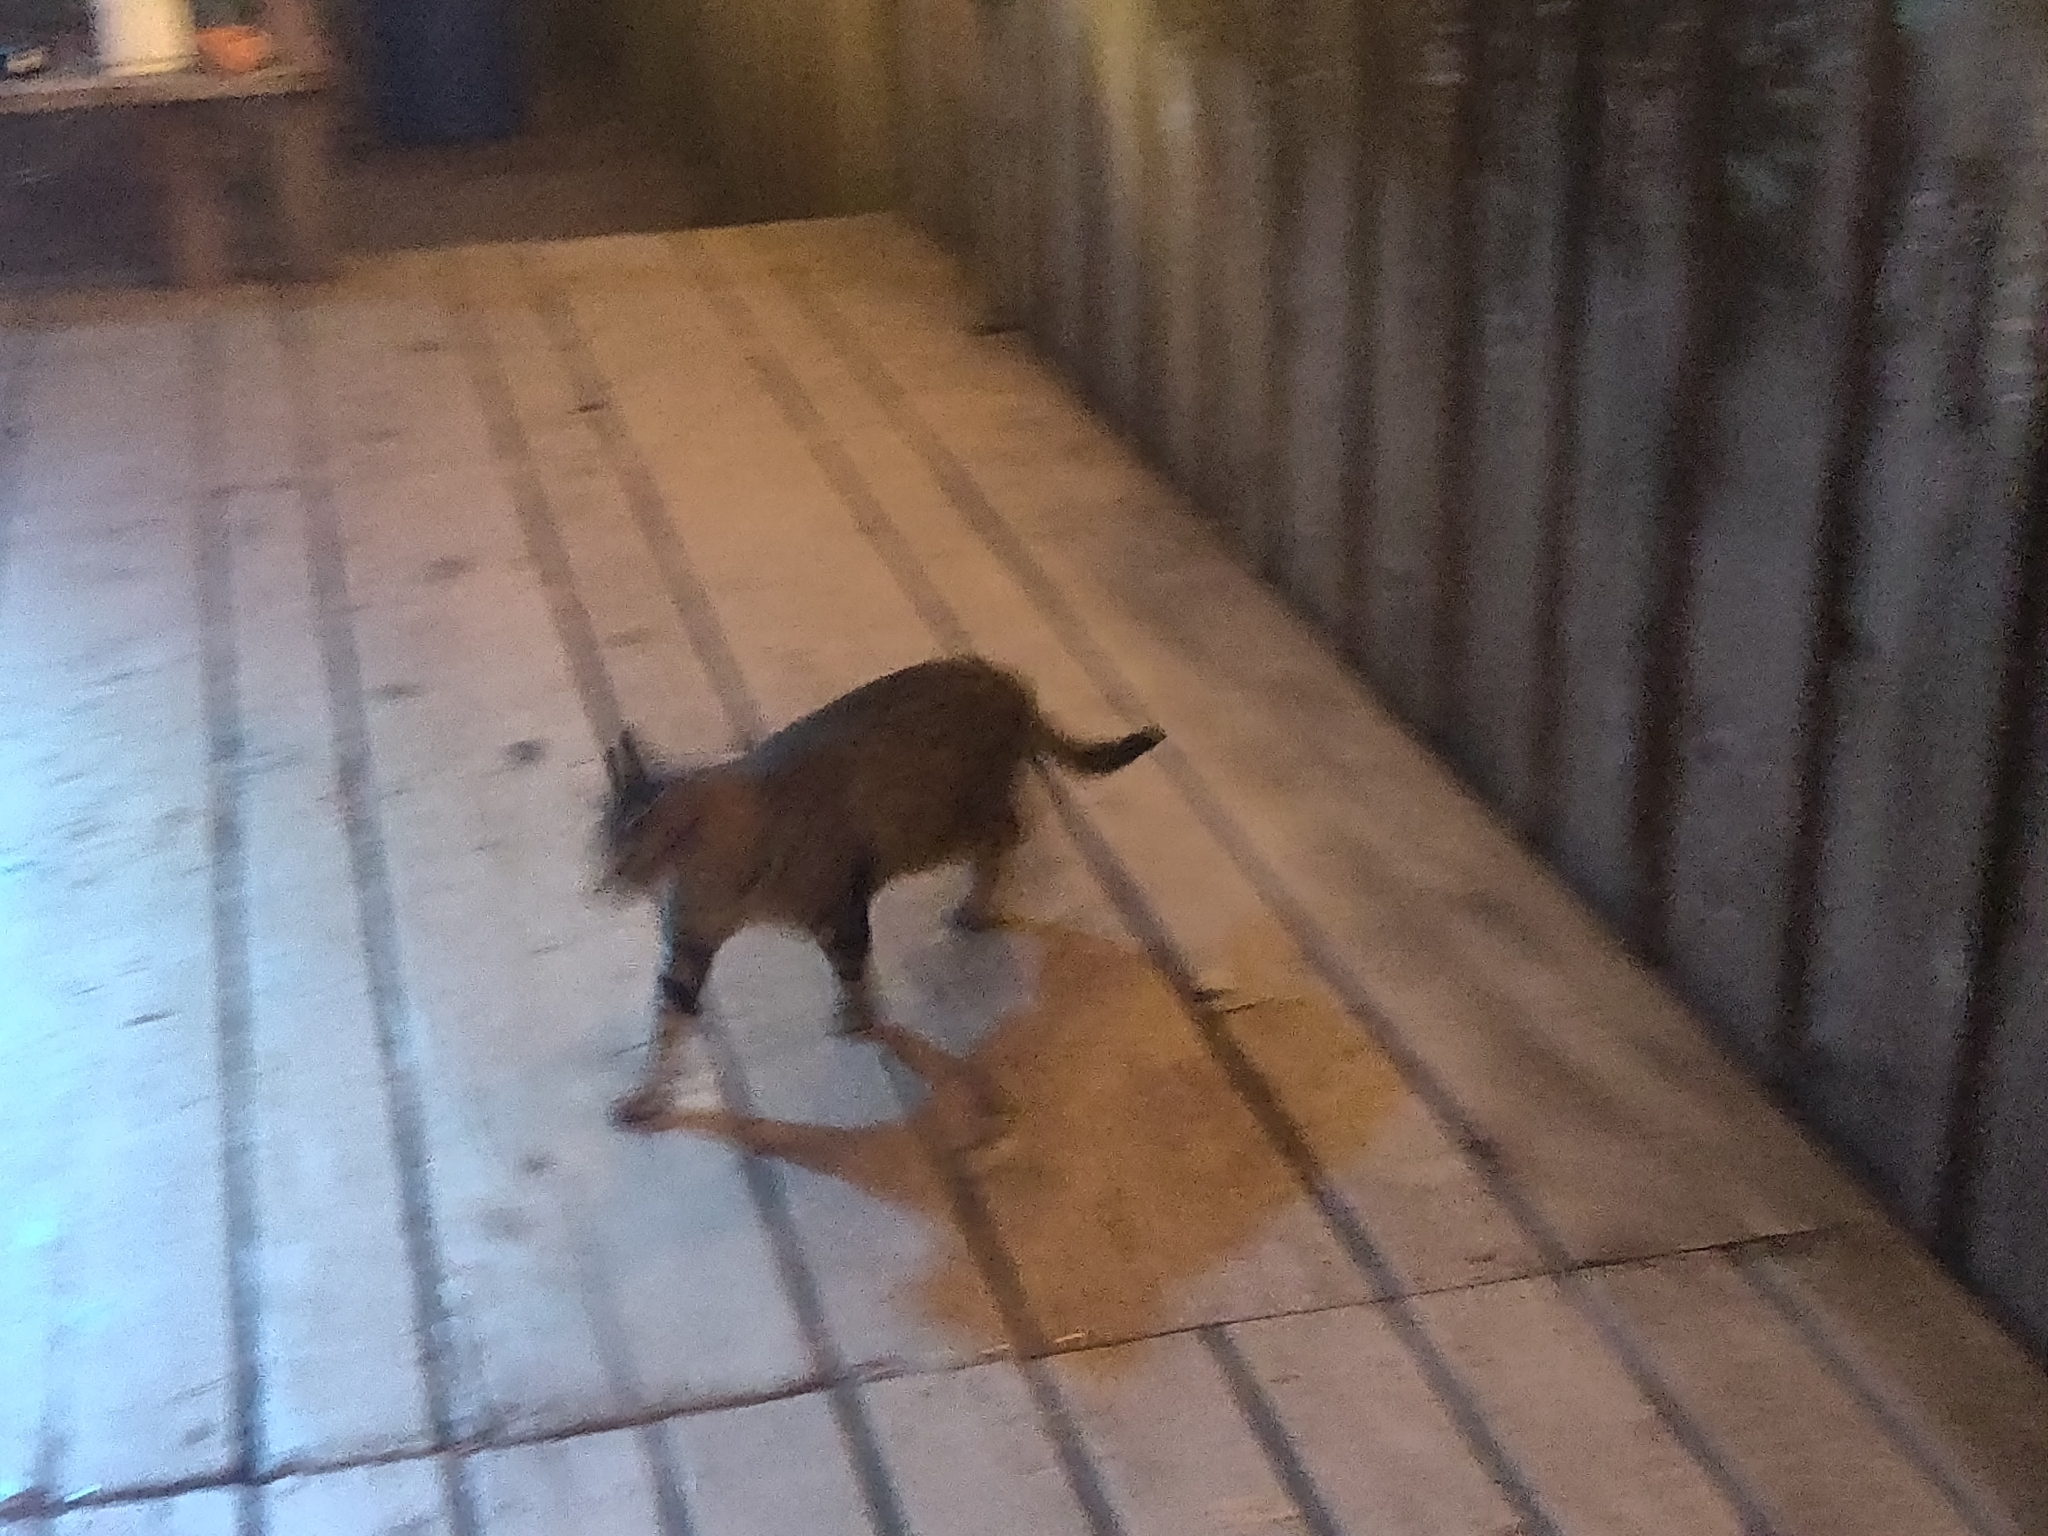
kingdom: Animalia
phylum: Chordata
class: Mammalia
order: Carnivora
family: Felidae
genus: Felis
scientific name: Felis catus
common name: Domestic cat
